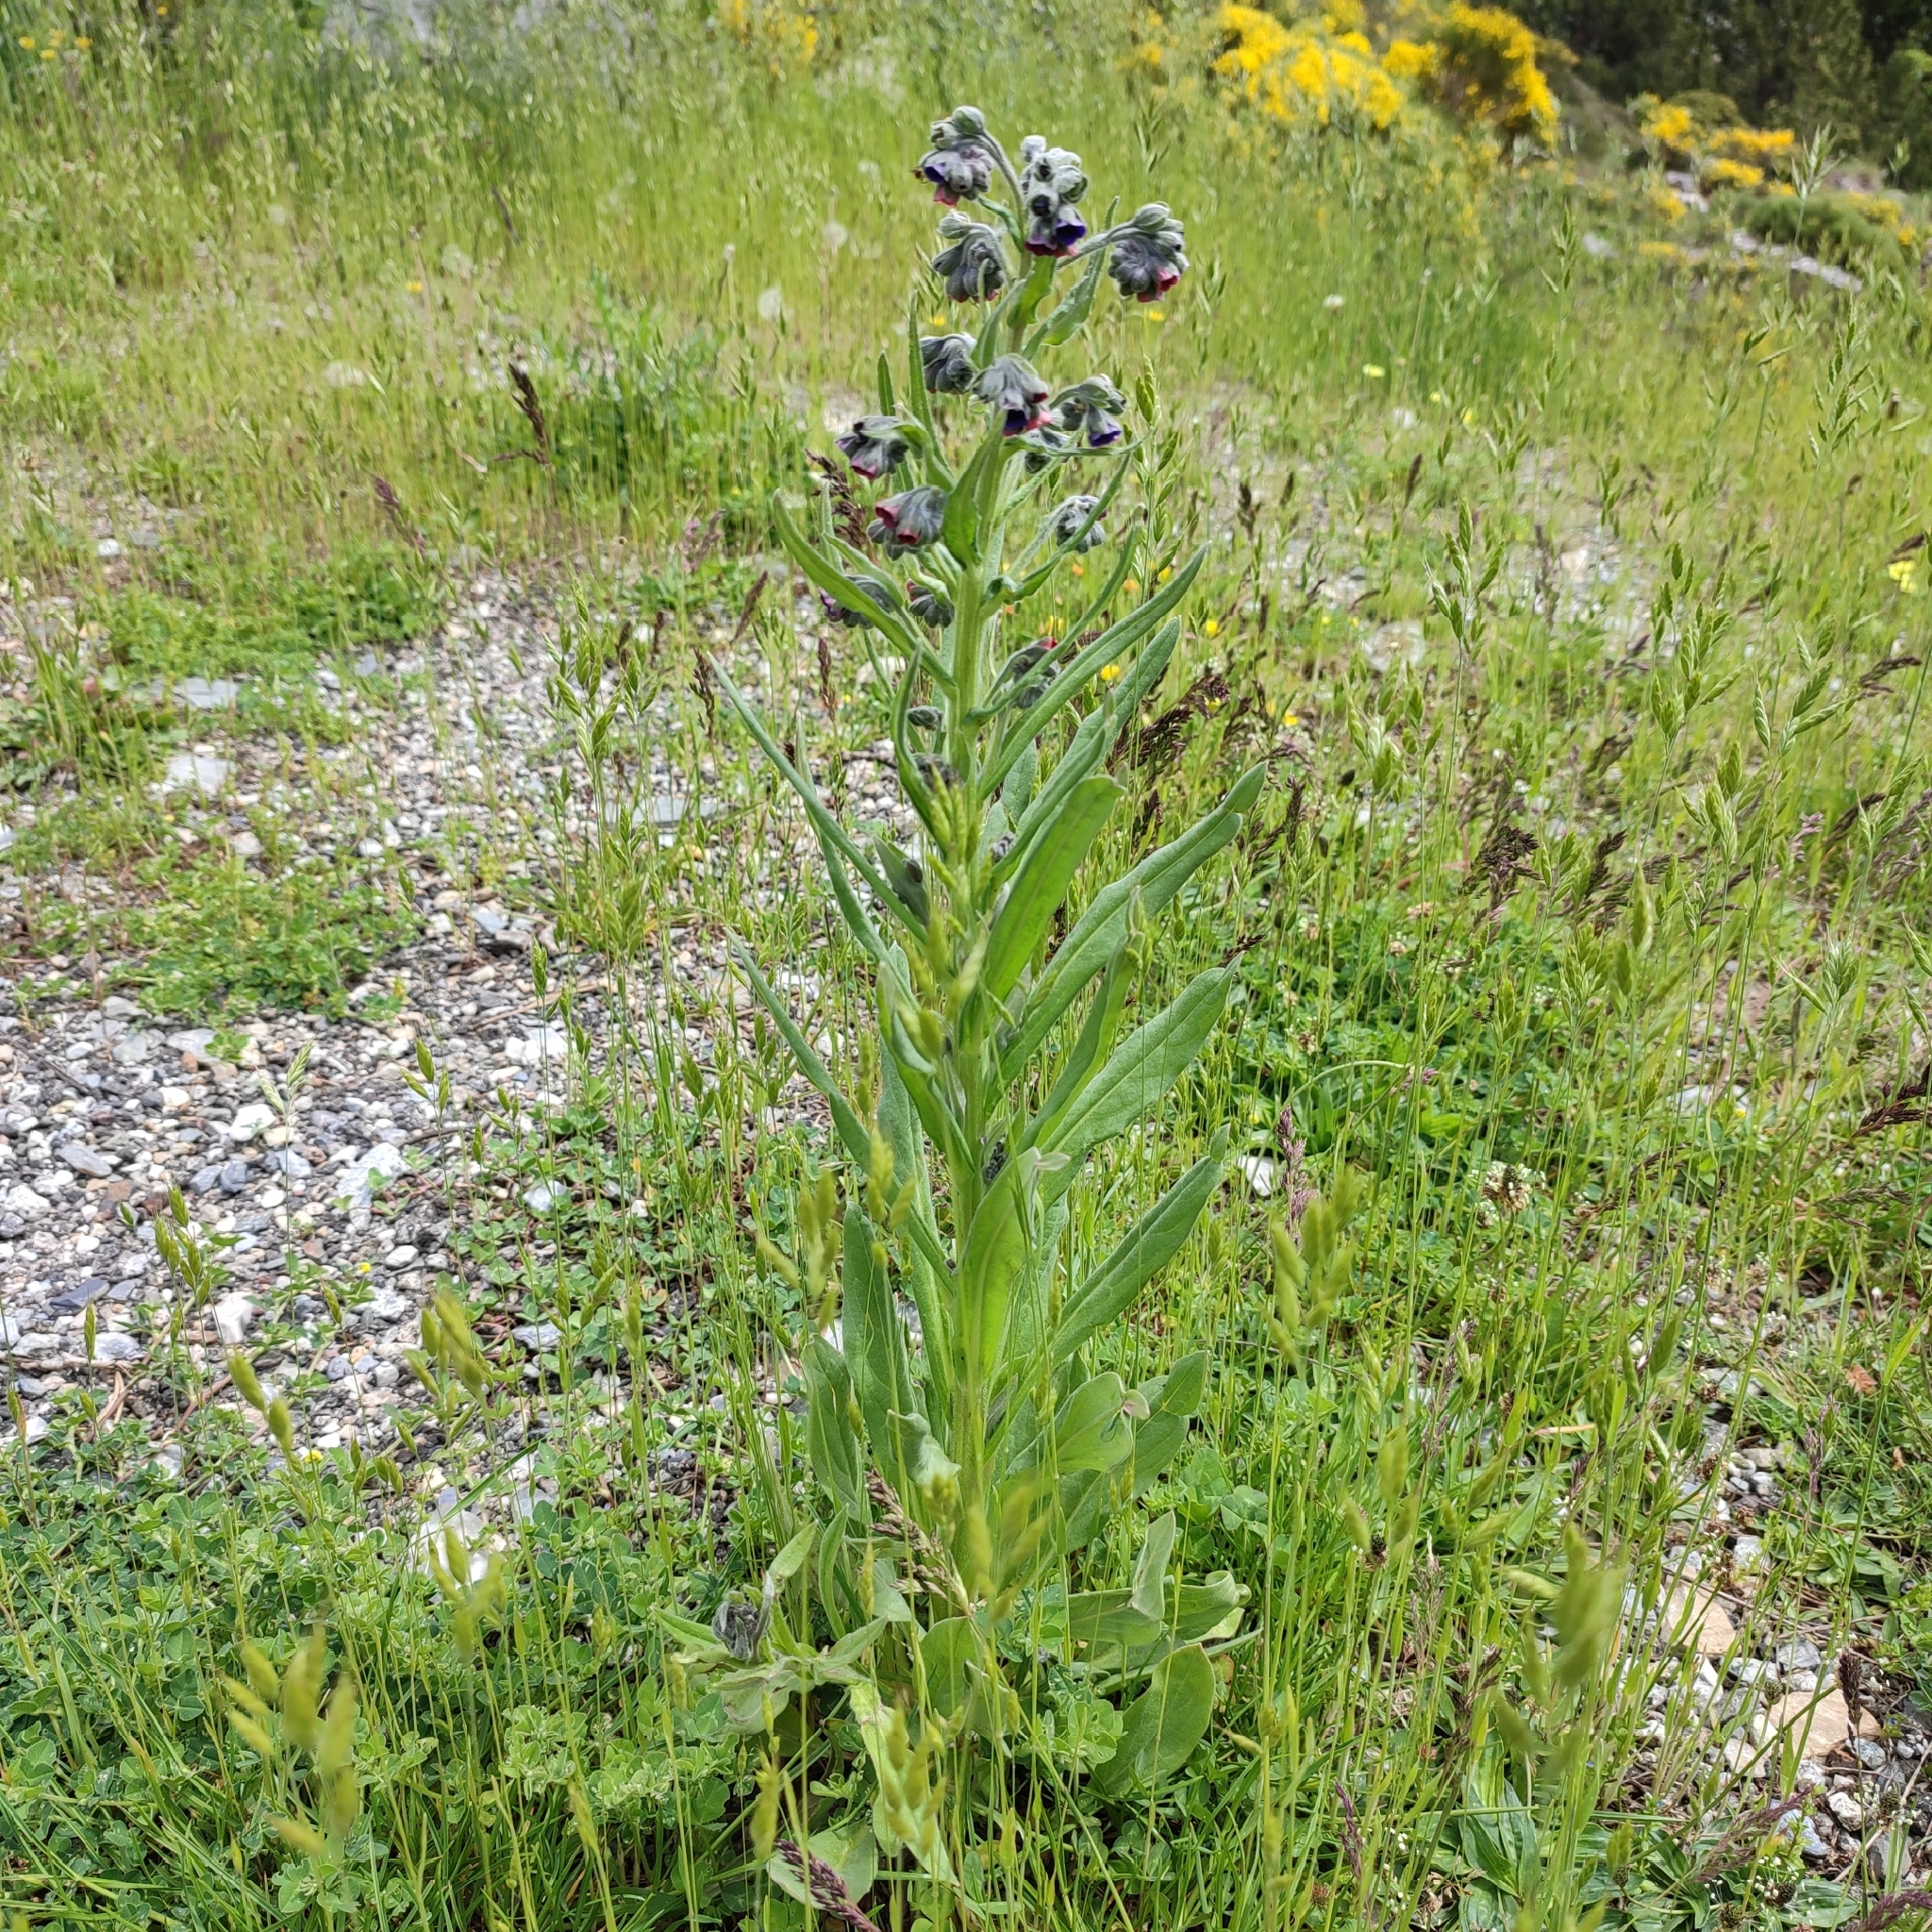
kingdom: Plantae
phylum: Tracheophyta
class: Magnoliopsida
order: Boraginales
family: Boraginaceae
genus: Cynoglossum
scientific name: Cynoglossum officinale
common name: Hound's-tongue
